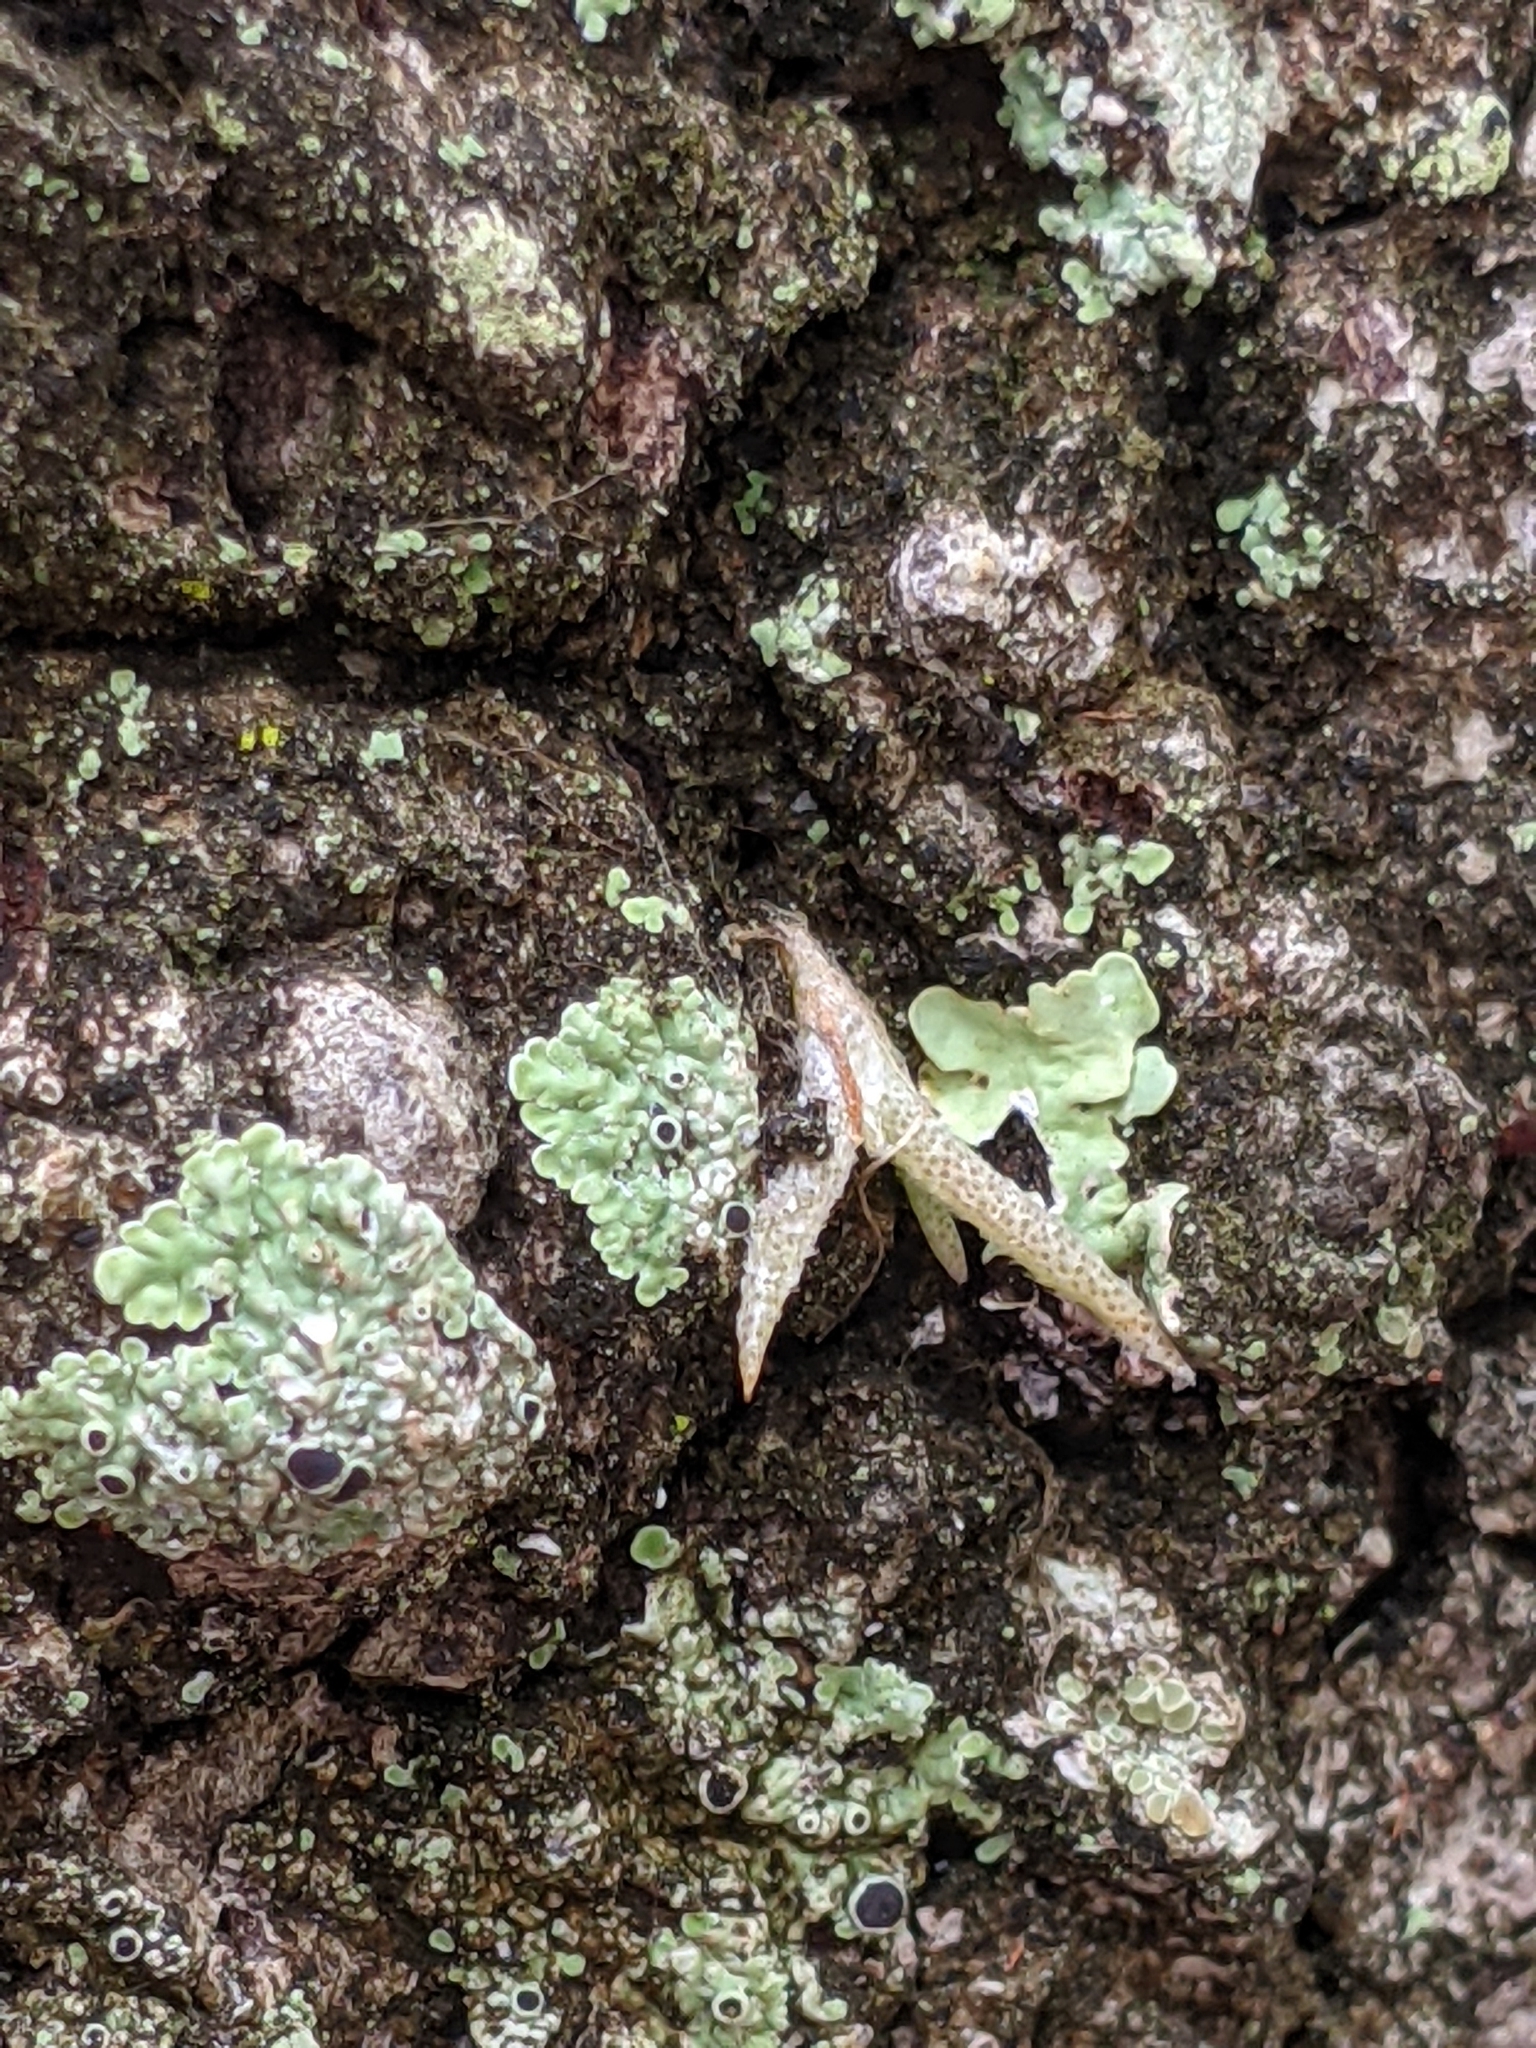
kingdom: Plantae
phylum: Tracheophyta
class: Liliopsida
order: Poales
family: Bromeliaceae
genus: Tillandsia
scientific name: Tillandsia recurvata
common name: Small ballmoss
